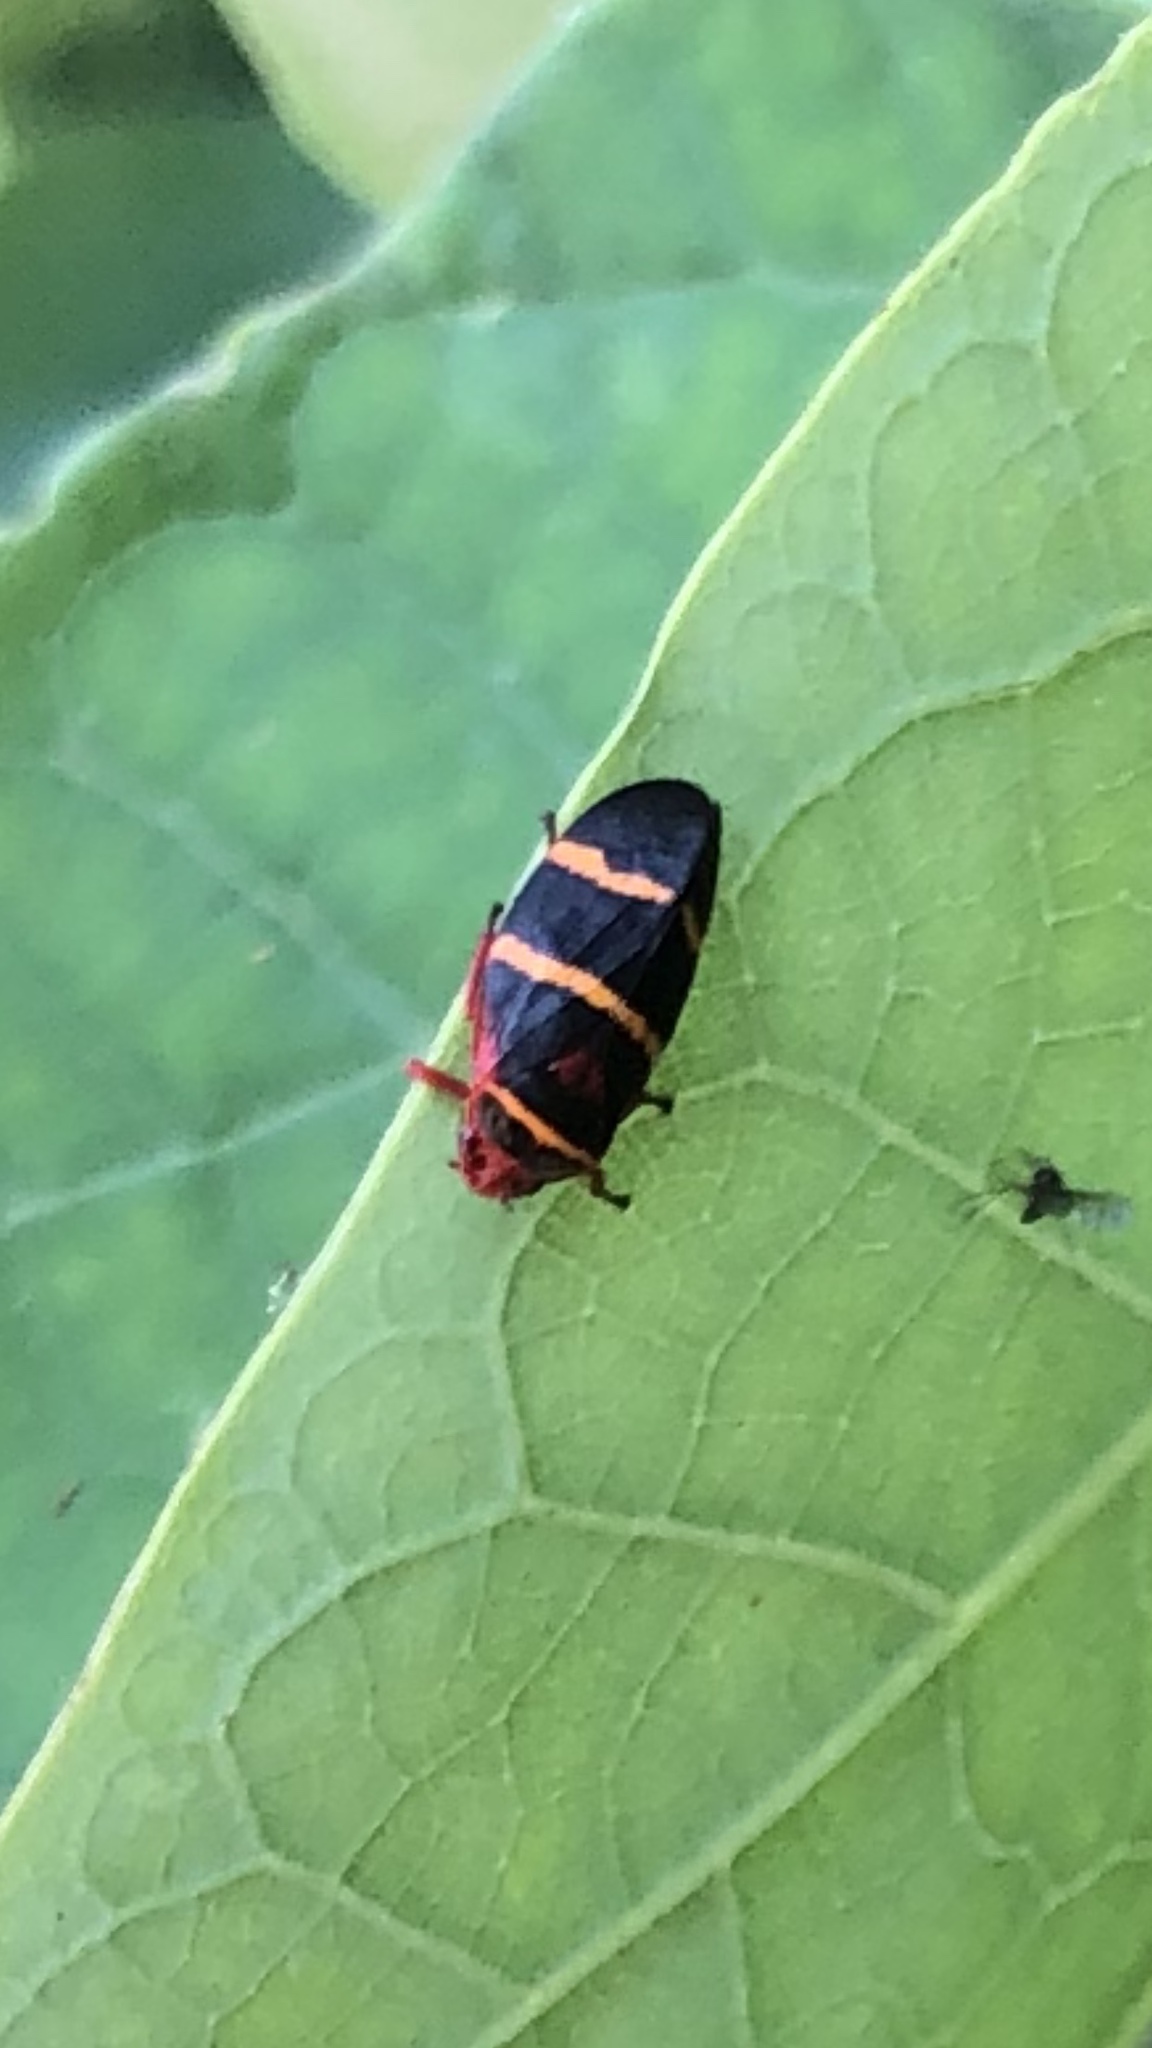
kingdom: Animalia
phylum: Arthropoda
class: Insecta
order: Hemiptera
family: Cercopidae
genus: Prosapia
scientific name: Prosapia bicincta
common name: Twolined spittlebug
